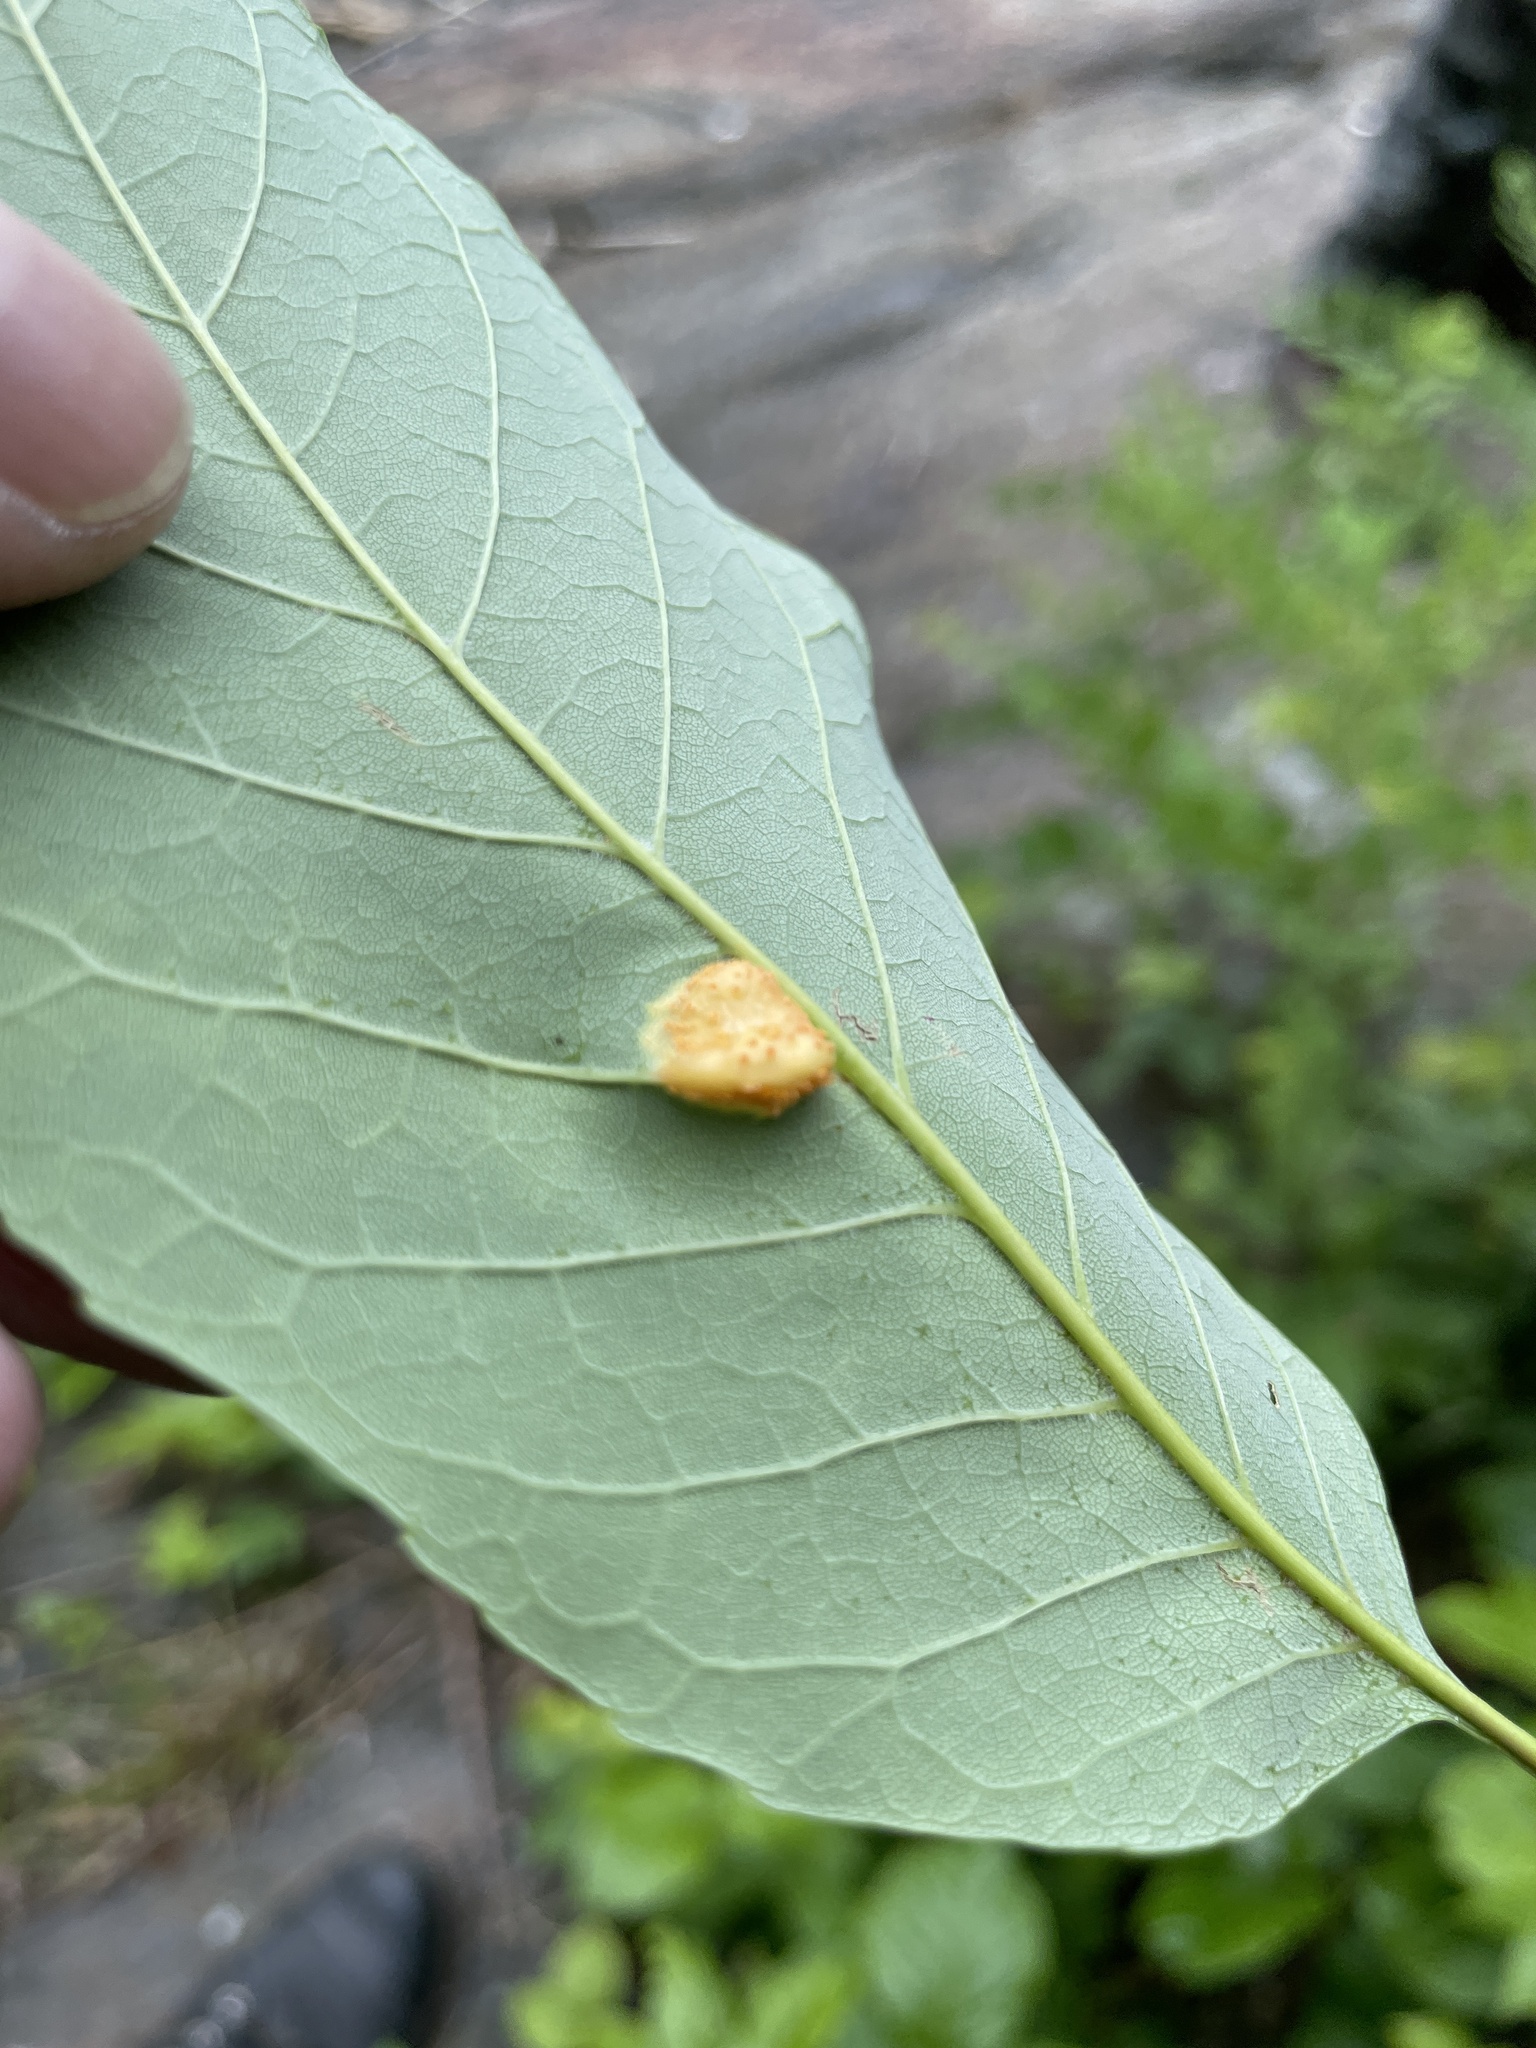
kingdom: Fungi
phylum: Basidiomycota
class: Pucciniomycetes
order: Pucciniales
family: Pucciniaceae
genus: Puccinia
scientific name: Puccinia sparganioidis
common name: Ash rust
